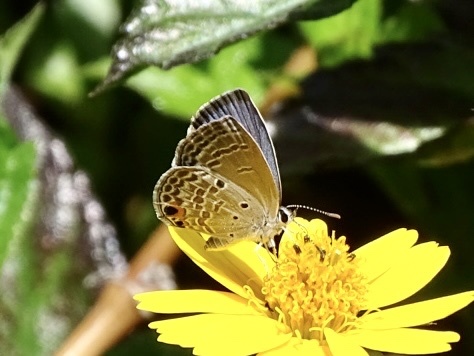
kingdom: Animalia
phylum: Arthropoda
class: Insecta
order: Lepidoptera
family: Lycaenidae
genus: Luthrodes
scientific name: Luthrodes pandava
